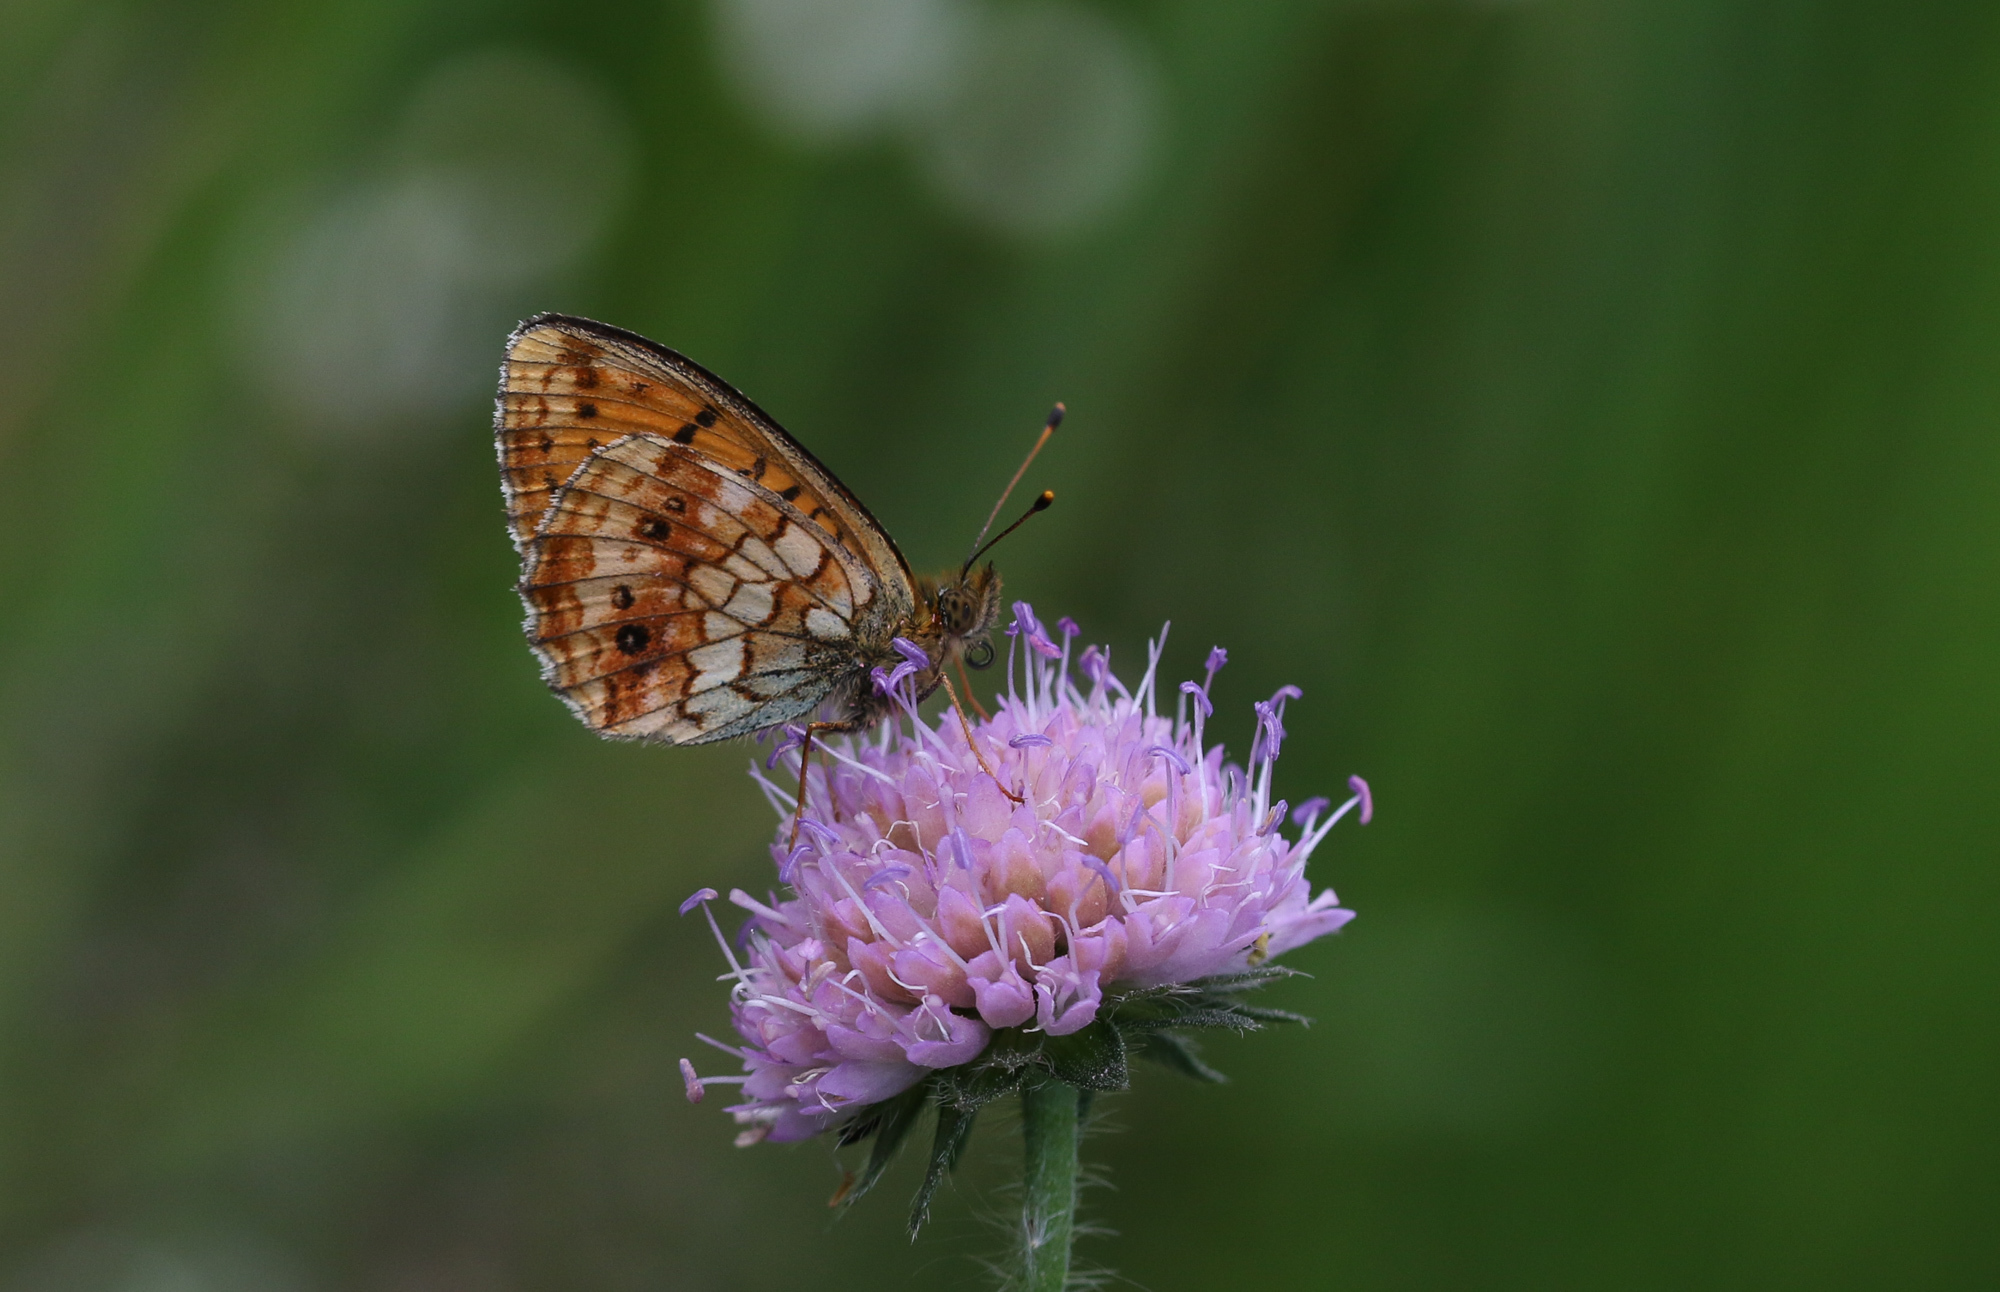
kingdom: Animalia
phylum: Arthropoda
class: Insecta
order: Lepidoptera
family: Nymphalidae
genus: Brenthis
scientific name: Brenthis ino
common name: Lesser marbled fritillary
